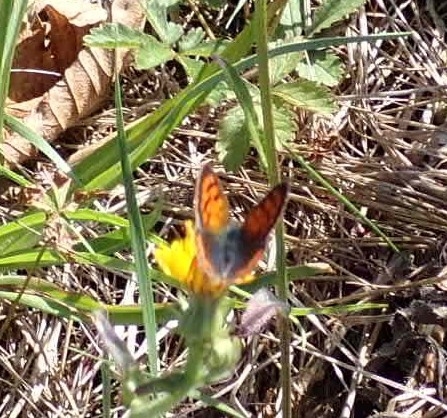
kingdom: Animalia
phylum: Arthropoda
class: Insecta
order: Lepidoptera
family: Lycaenidae
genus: Lycaena
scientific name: Lycaena phlaeas
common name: Small copper
